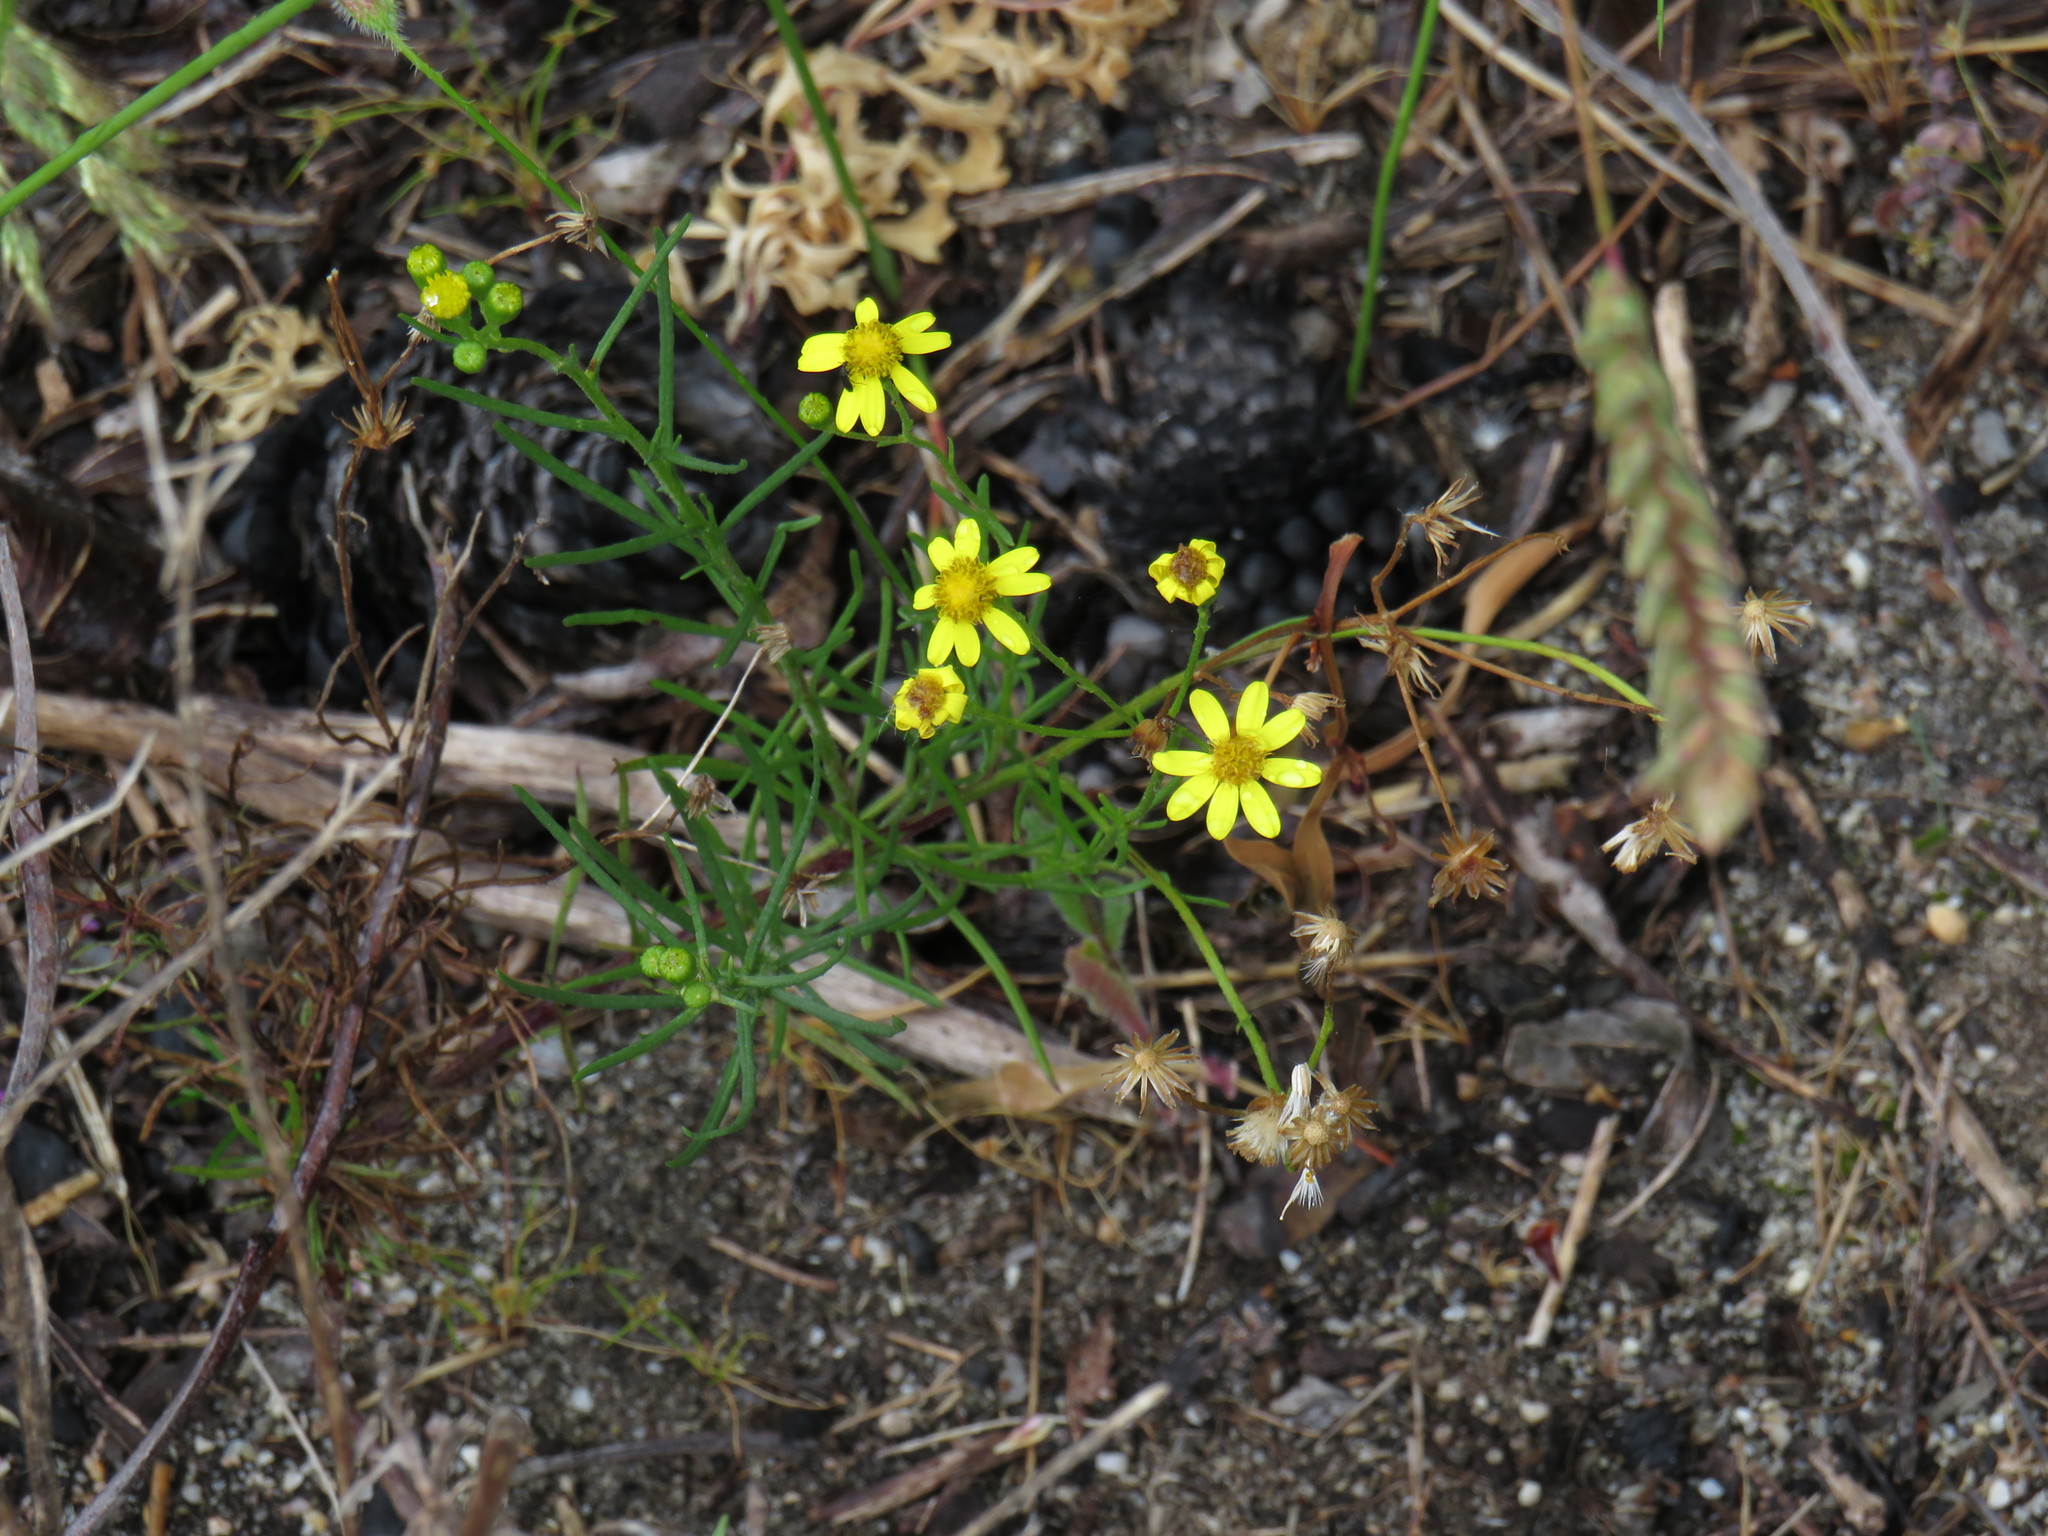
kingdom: Plantae
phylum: Tracheophyta
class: Magnoliopsida
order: Asterales
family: Asteraceae
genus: Senecio
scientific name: Senecio burchellii
